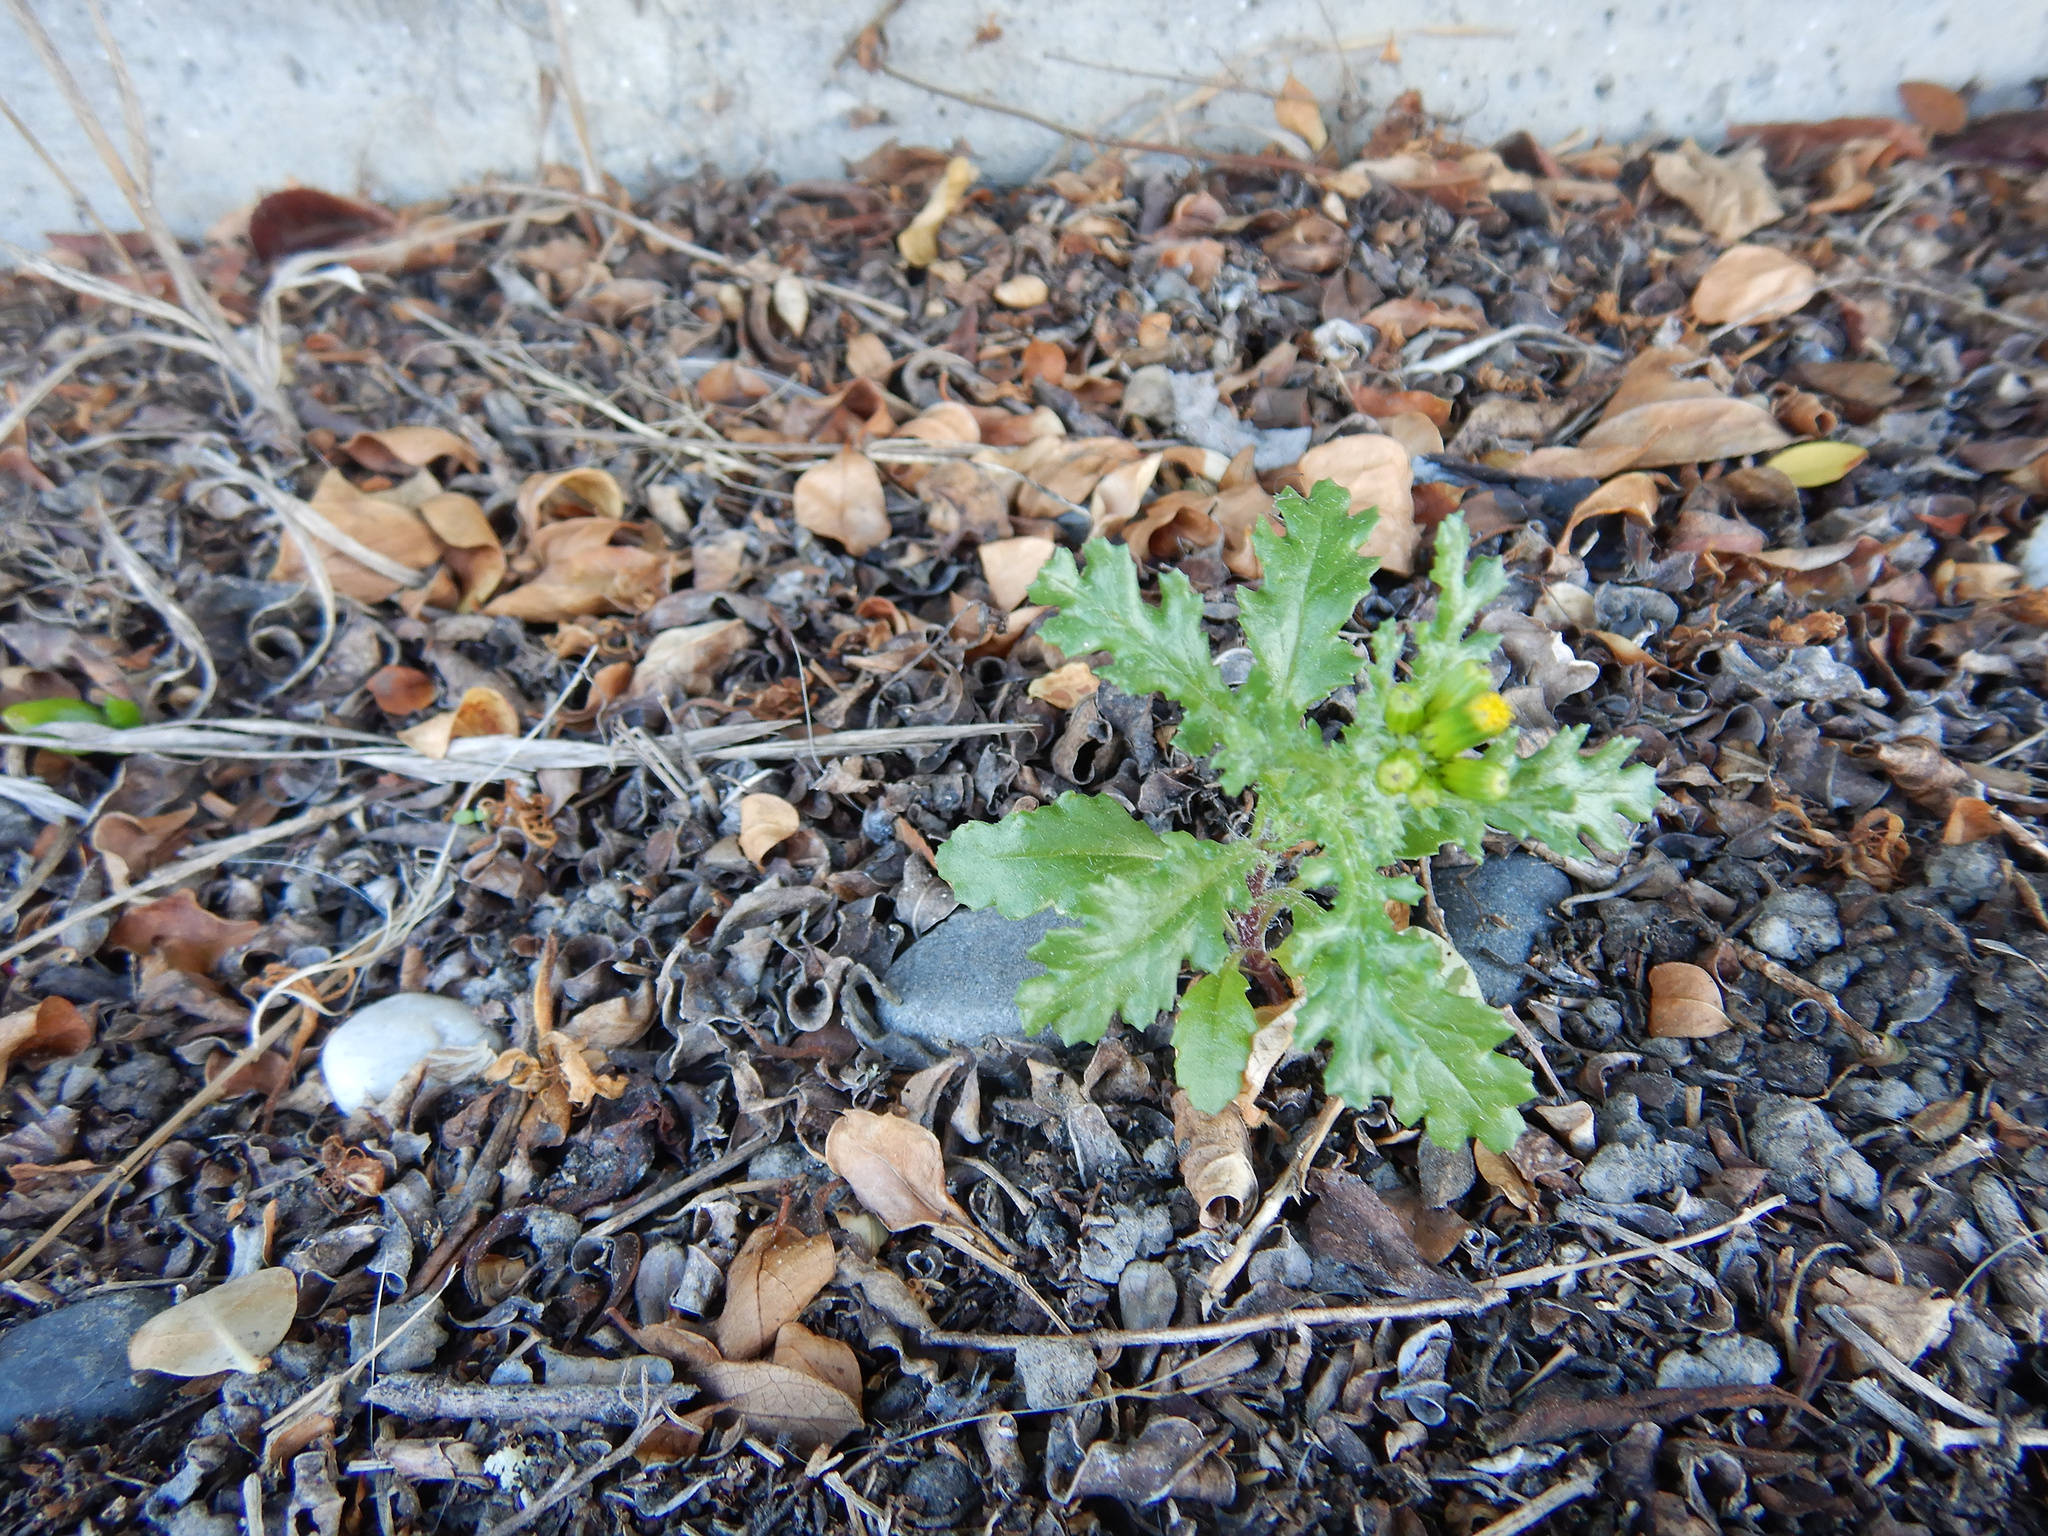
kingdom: Plantae
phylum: Tracheophyta
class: Magnoliopsida
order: Asterales
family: Asteraceae
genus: Senecio
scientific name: Senecio vulgaris
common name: Old-man-in-the-spring
